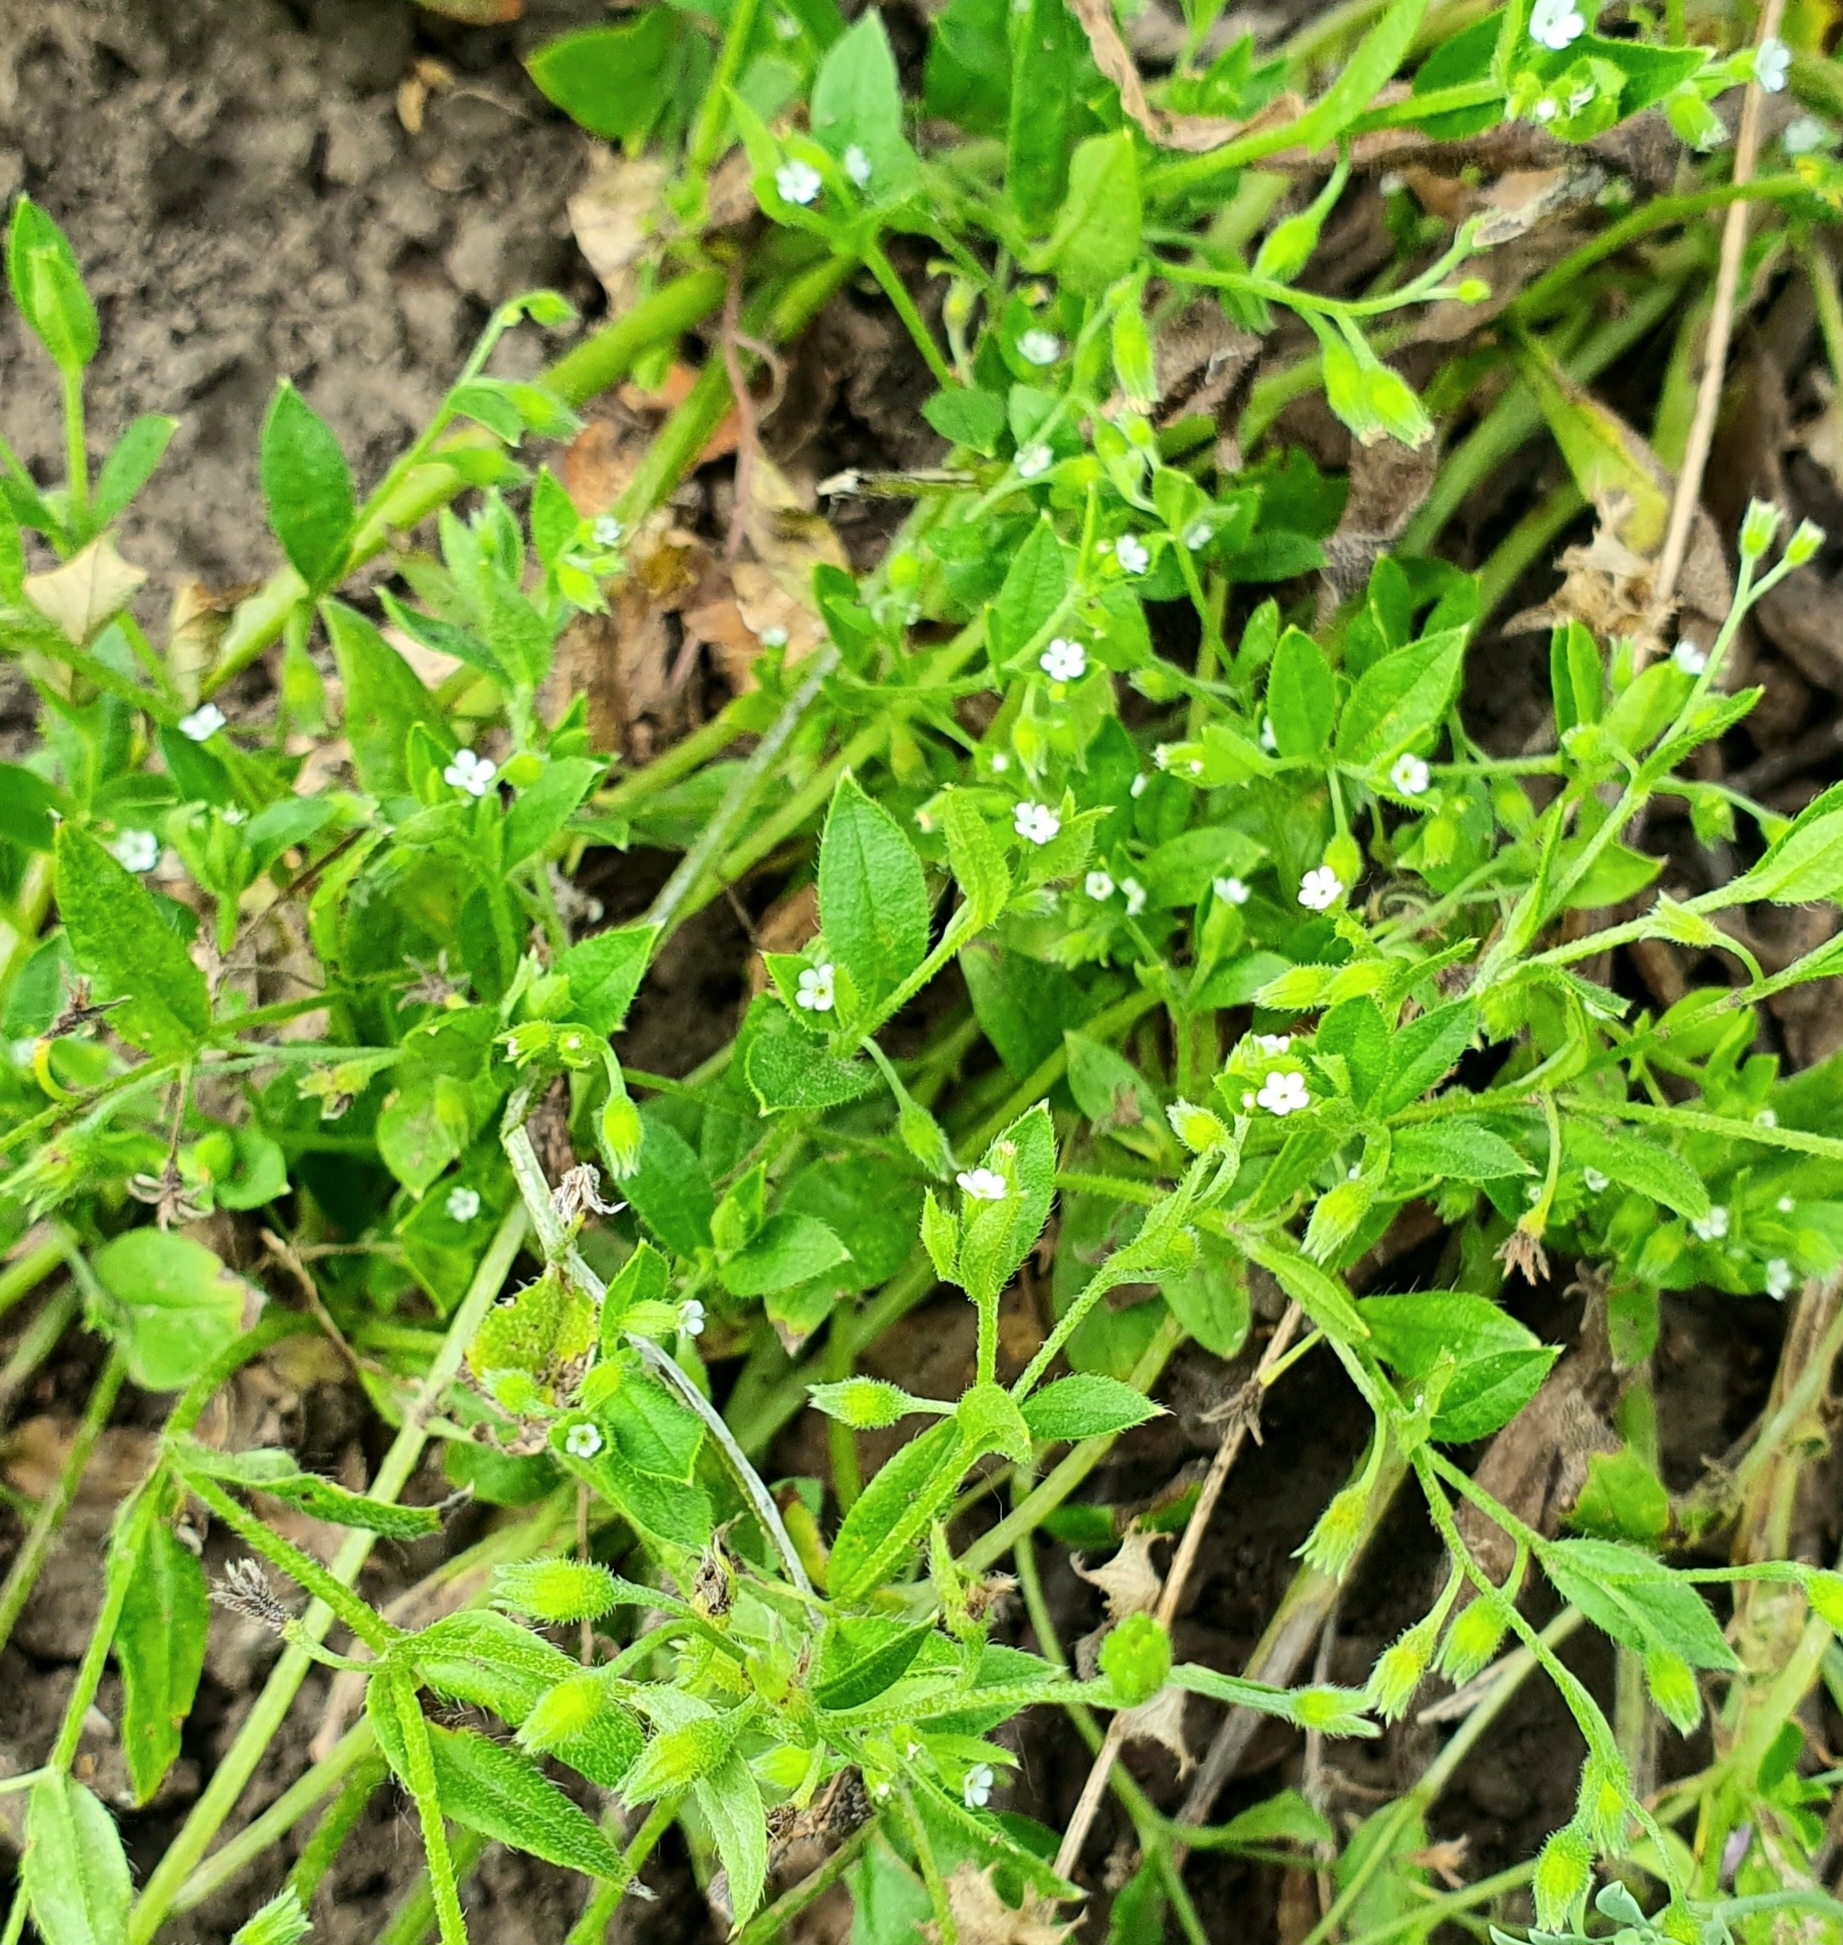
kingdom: Plantae
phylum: Tracheophyta
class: Magnoliopsida
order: Boraginales
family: Boraginaceae
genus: Myosotis
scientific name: Myosotis sparsiflora
